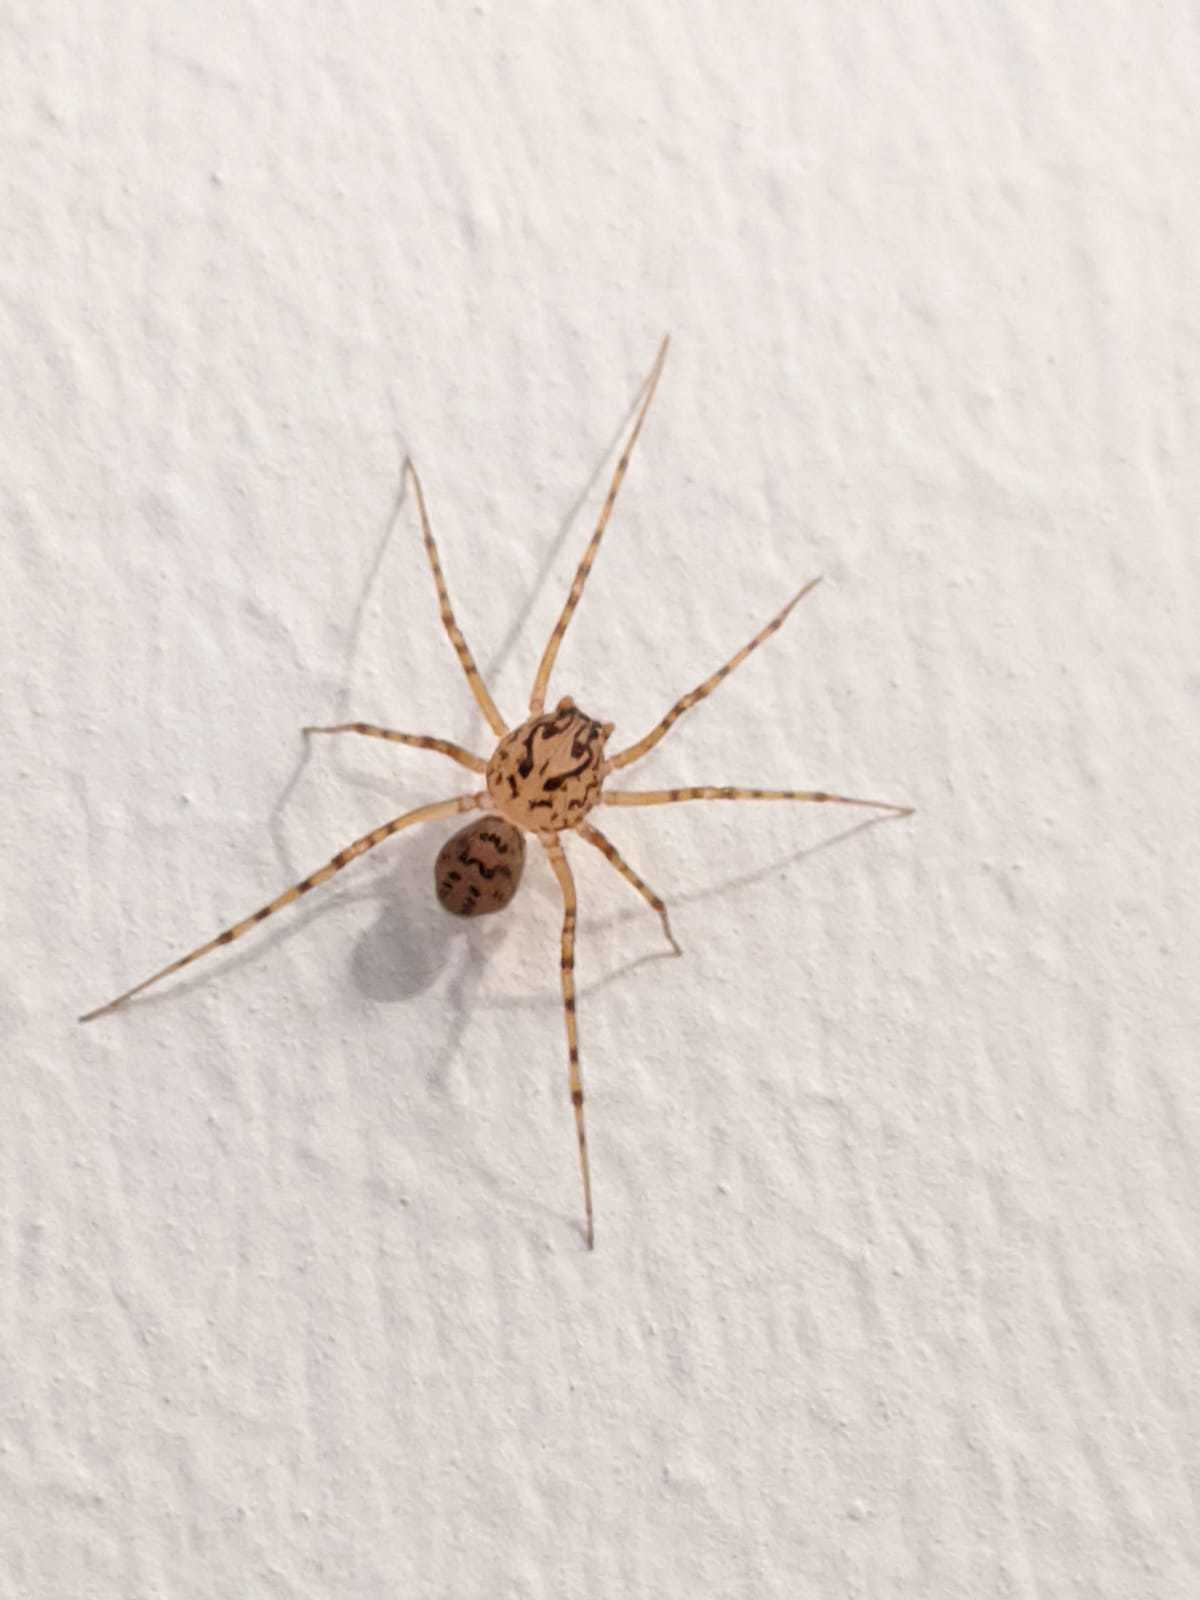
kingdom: Animalia
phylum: Arthropoda
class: Arachnida
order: Araneae
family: Scytodidae
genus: Scytodes
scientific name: Scytodes thoracica
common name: Spitting spider
